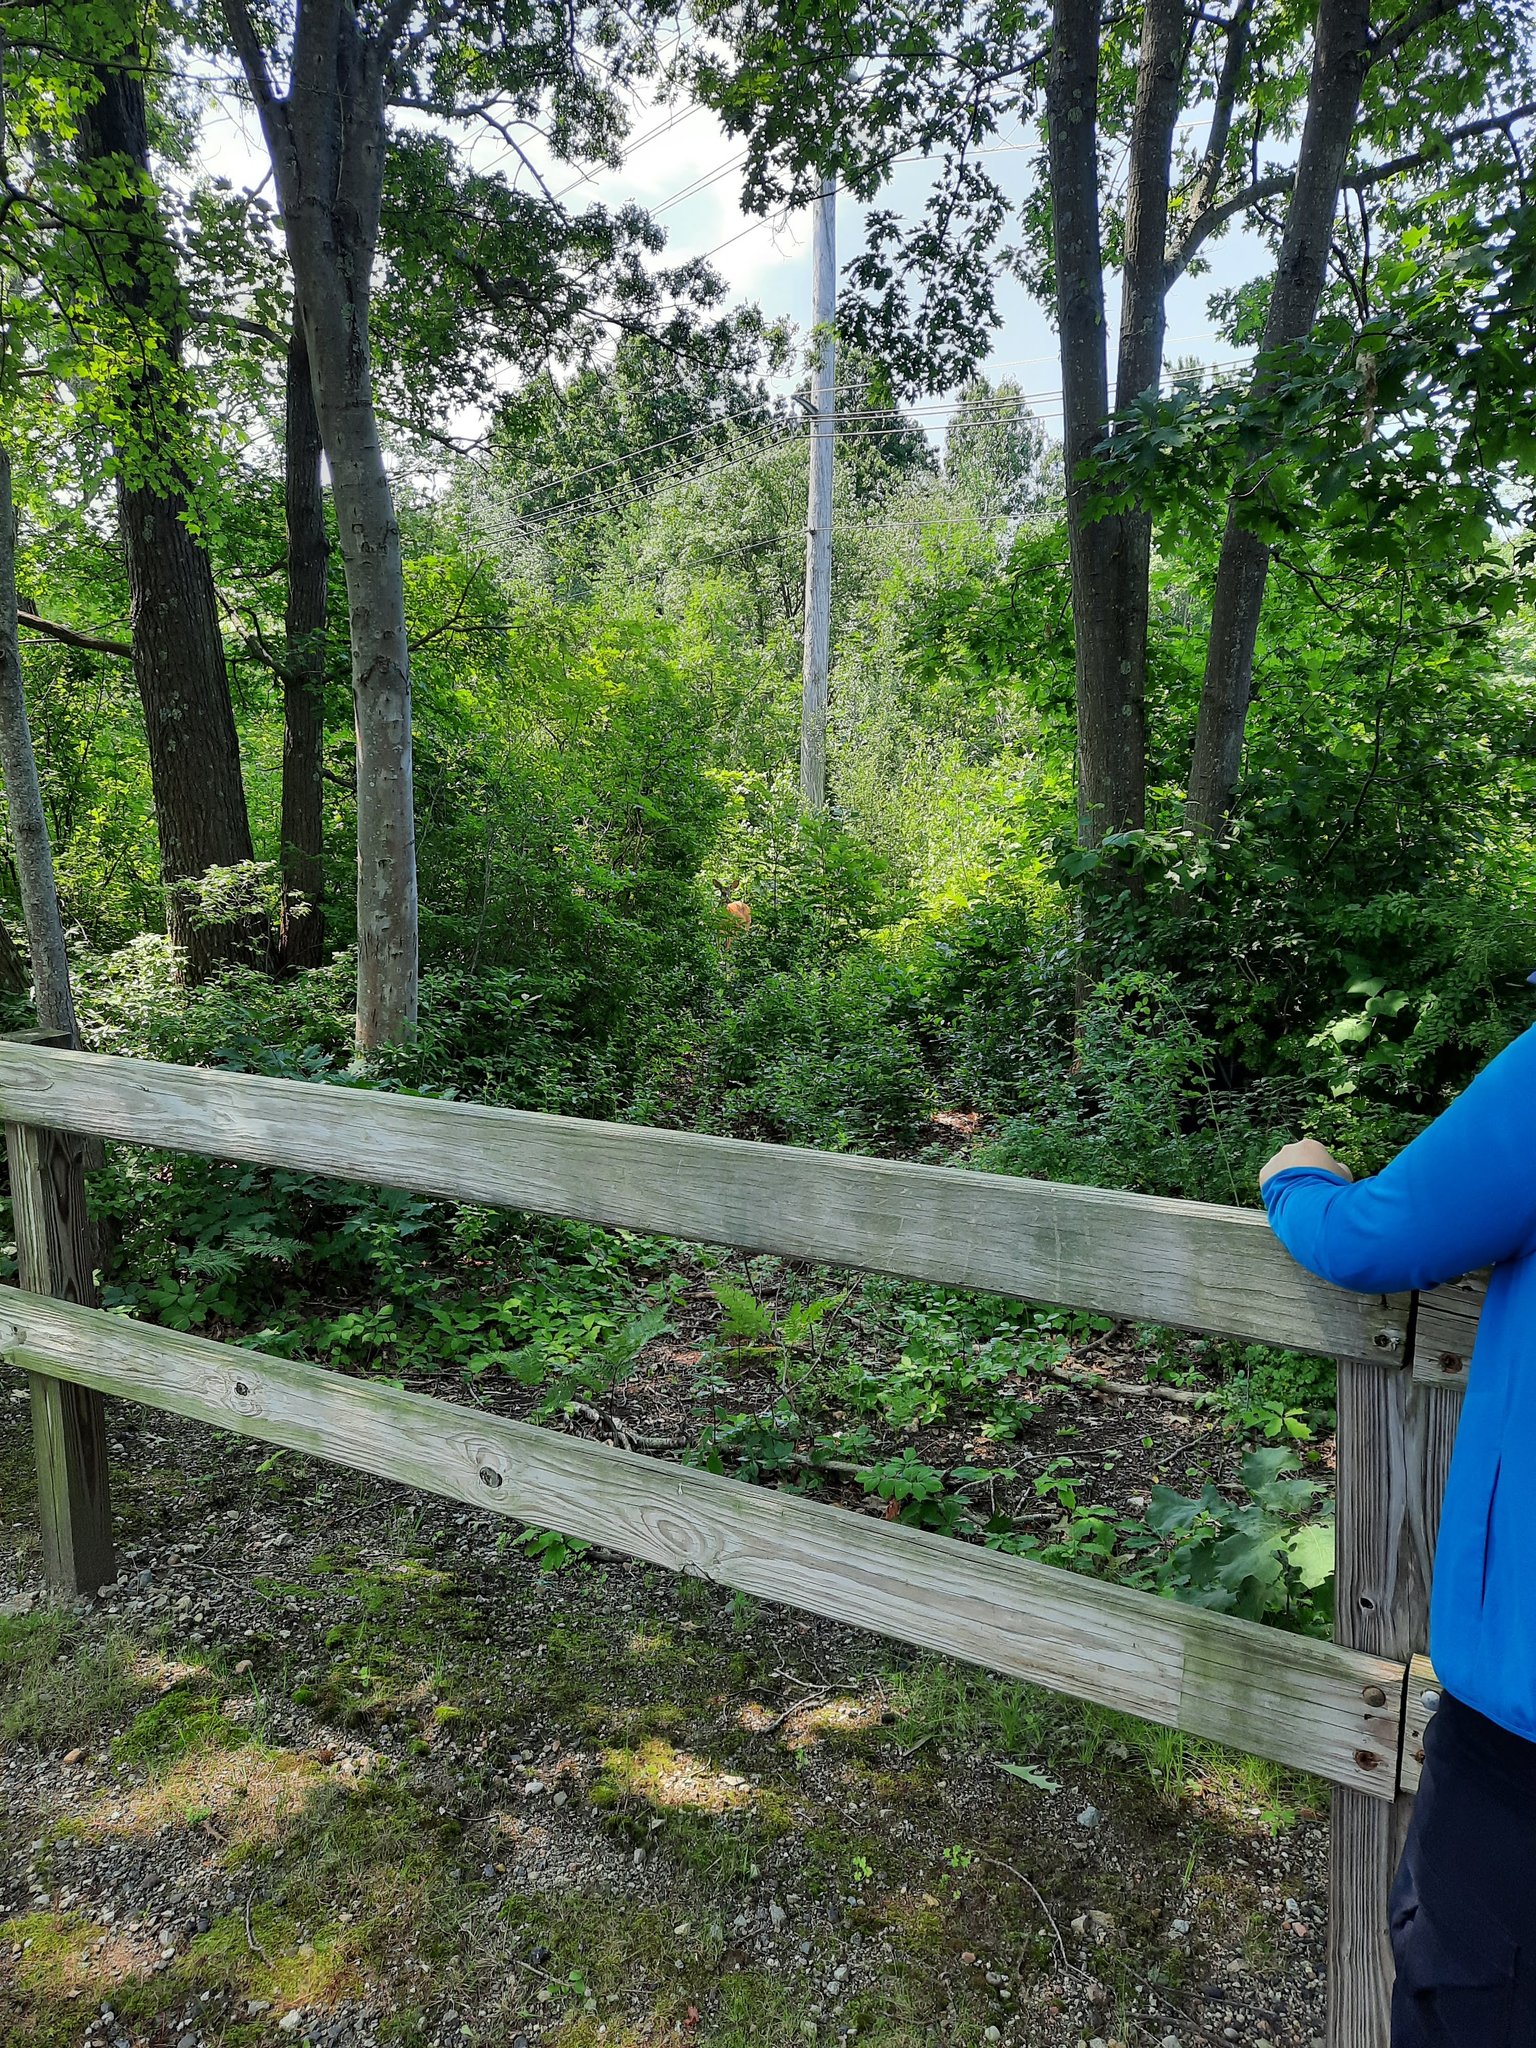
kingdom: Animalia
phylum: Chordata
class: Mammalia
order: Artiodactyla
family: Cervidae
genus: Odocoileus
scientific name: Odocoileus virginianus
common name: White-tailed deer
